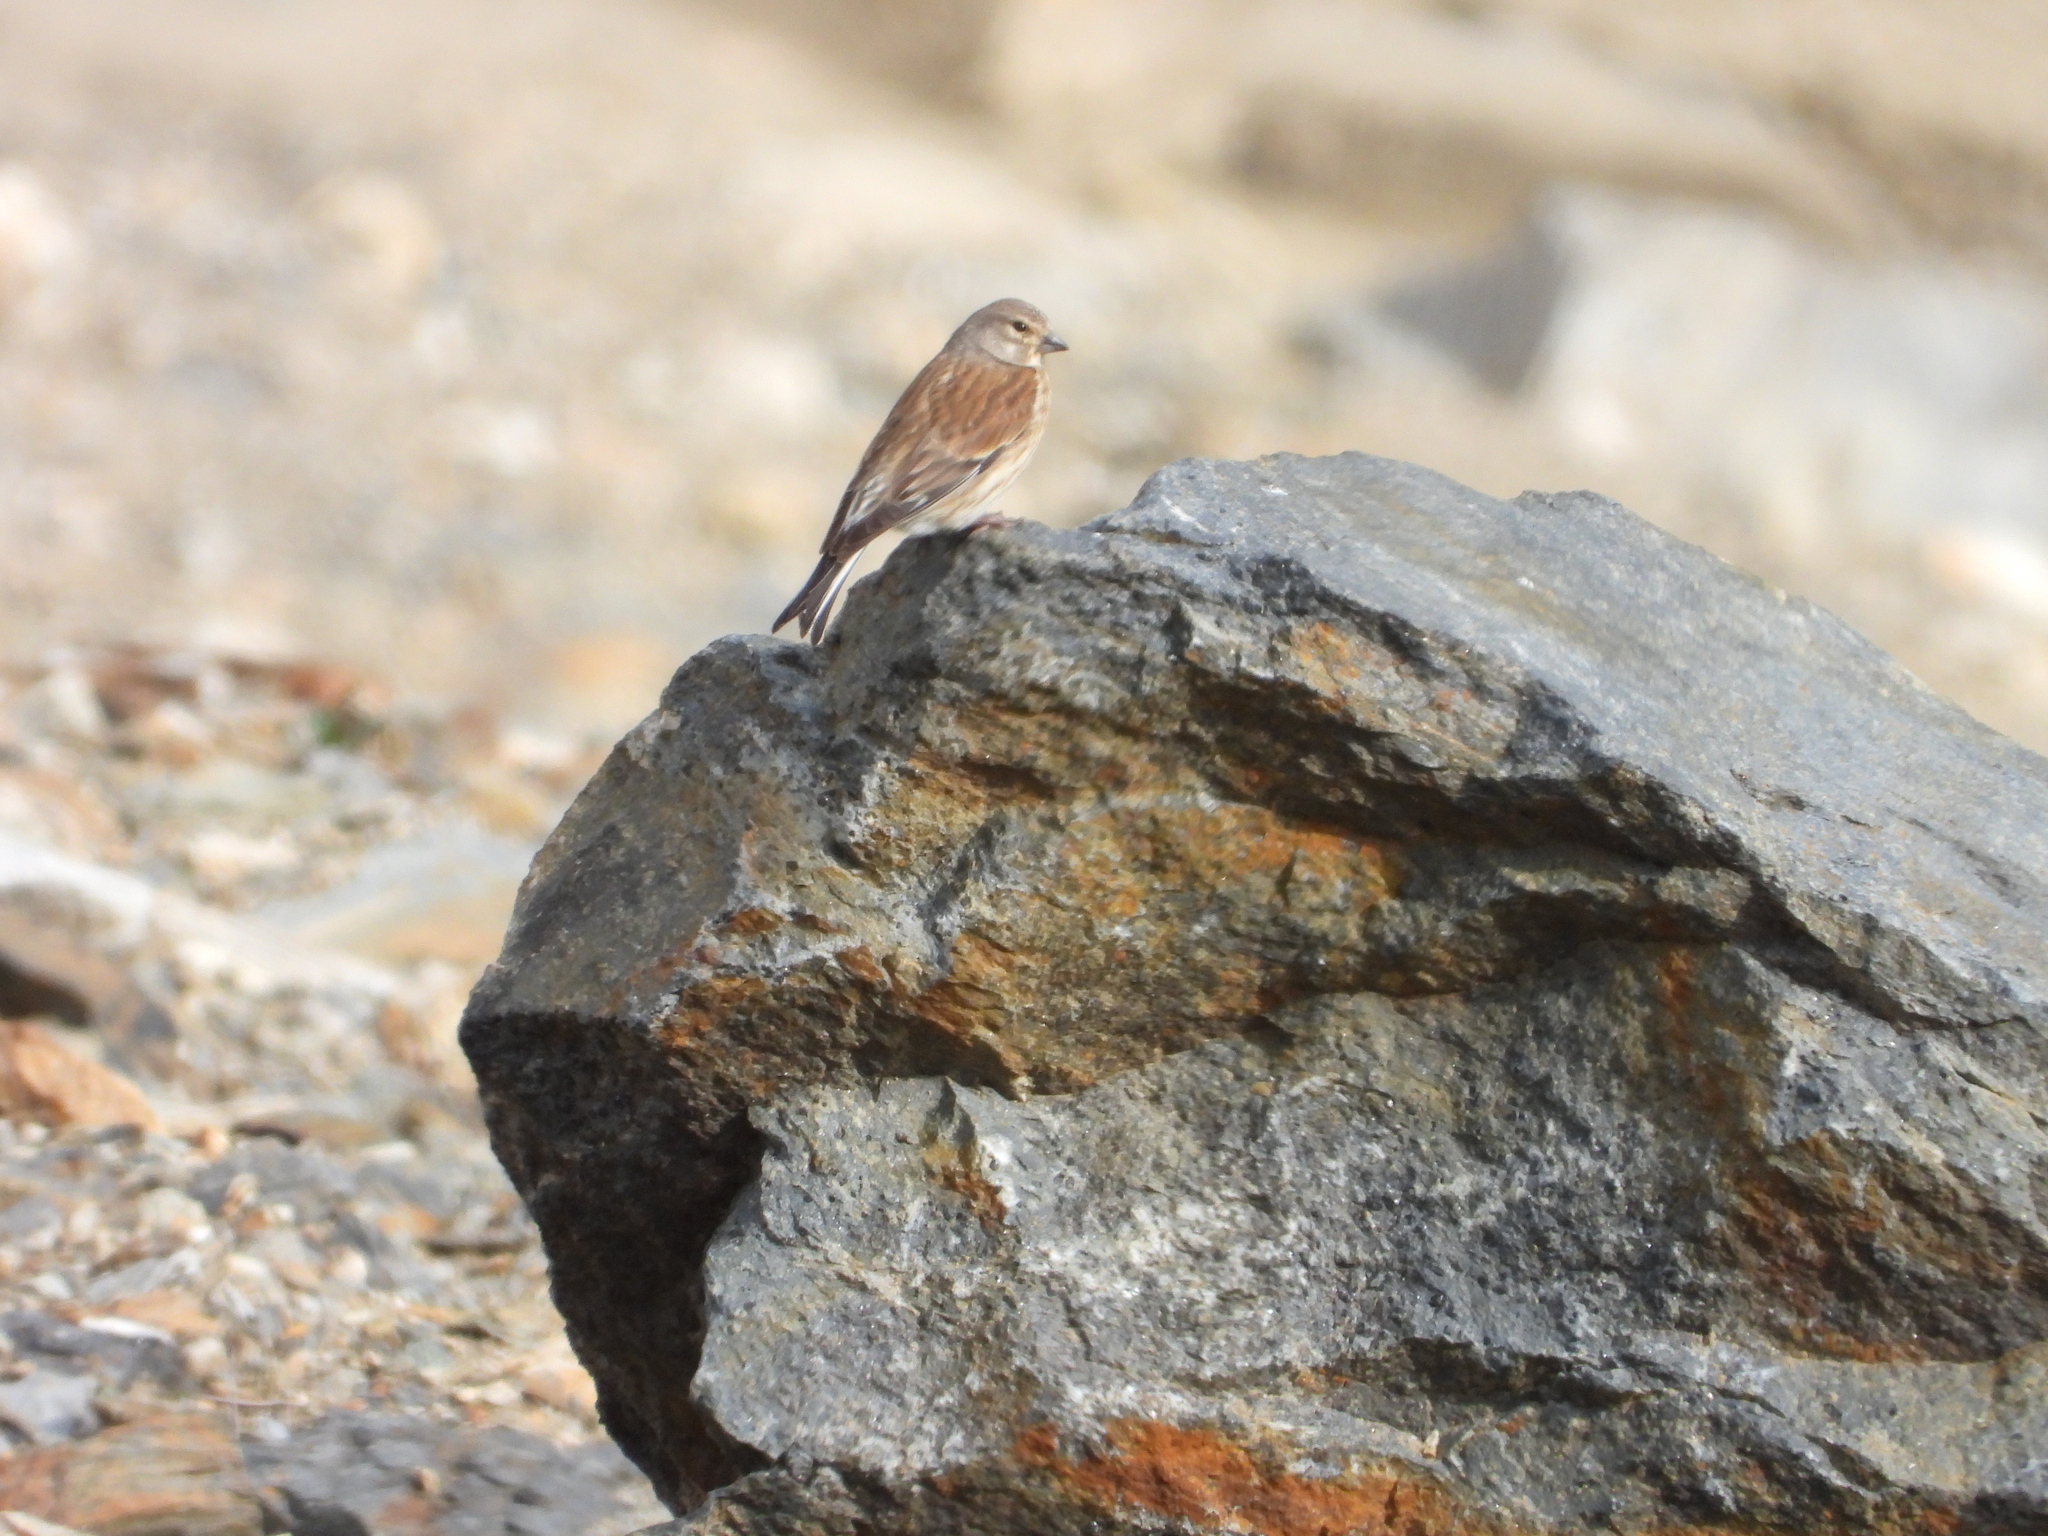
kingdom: Animalia
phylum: Chordata
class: Aves
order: Passeriformes
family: Fringillidae
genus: Linaria
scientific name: Linaria cannabina
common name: Common linnet
